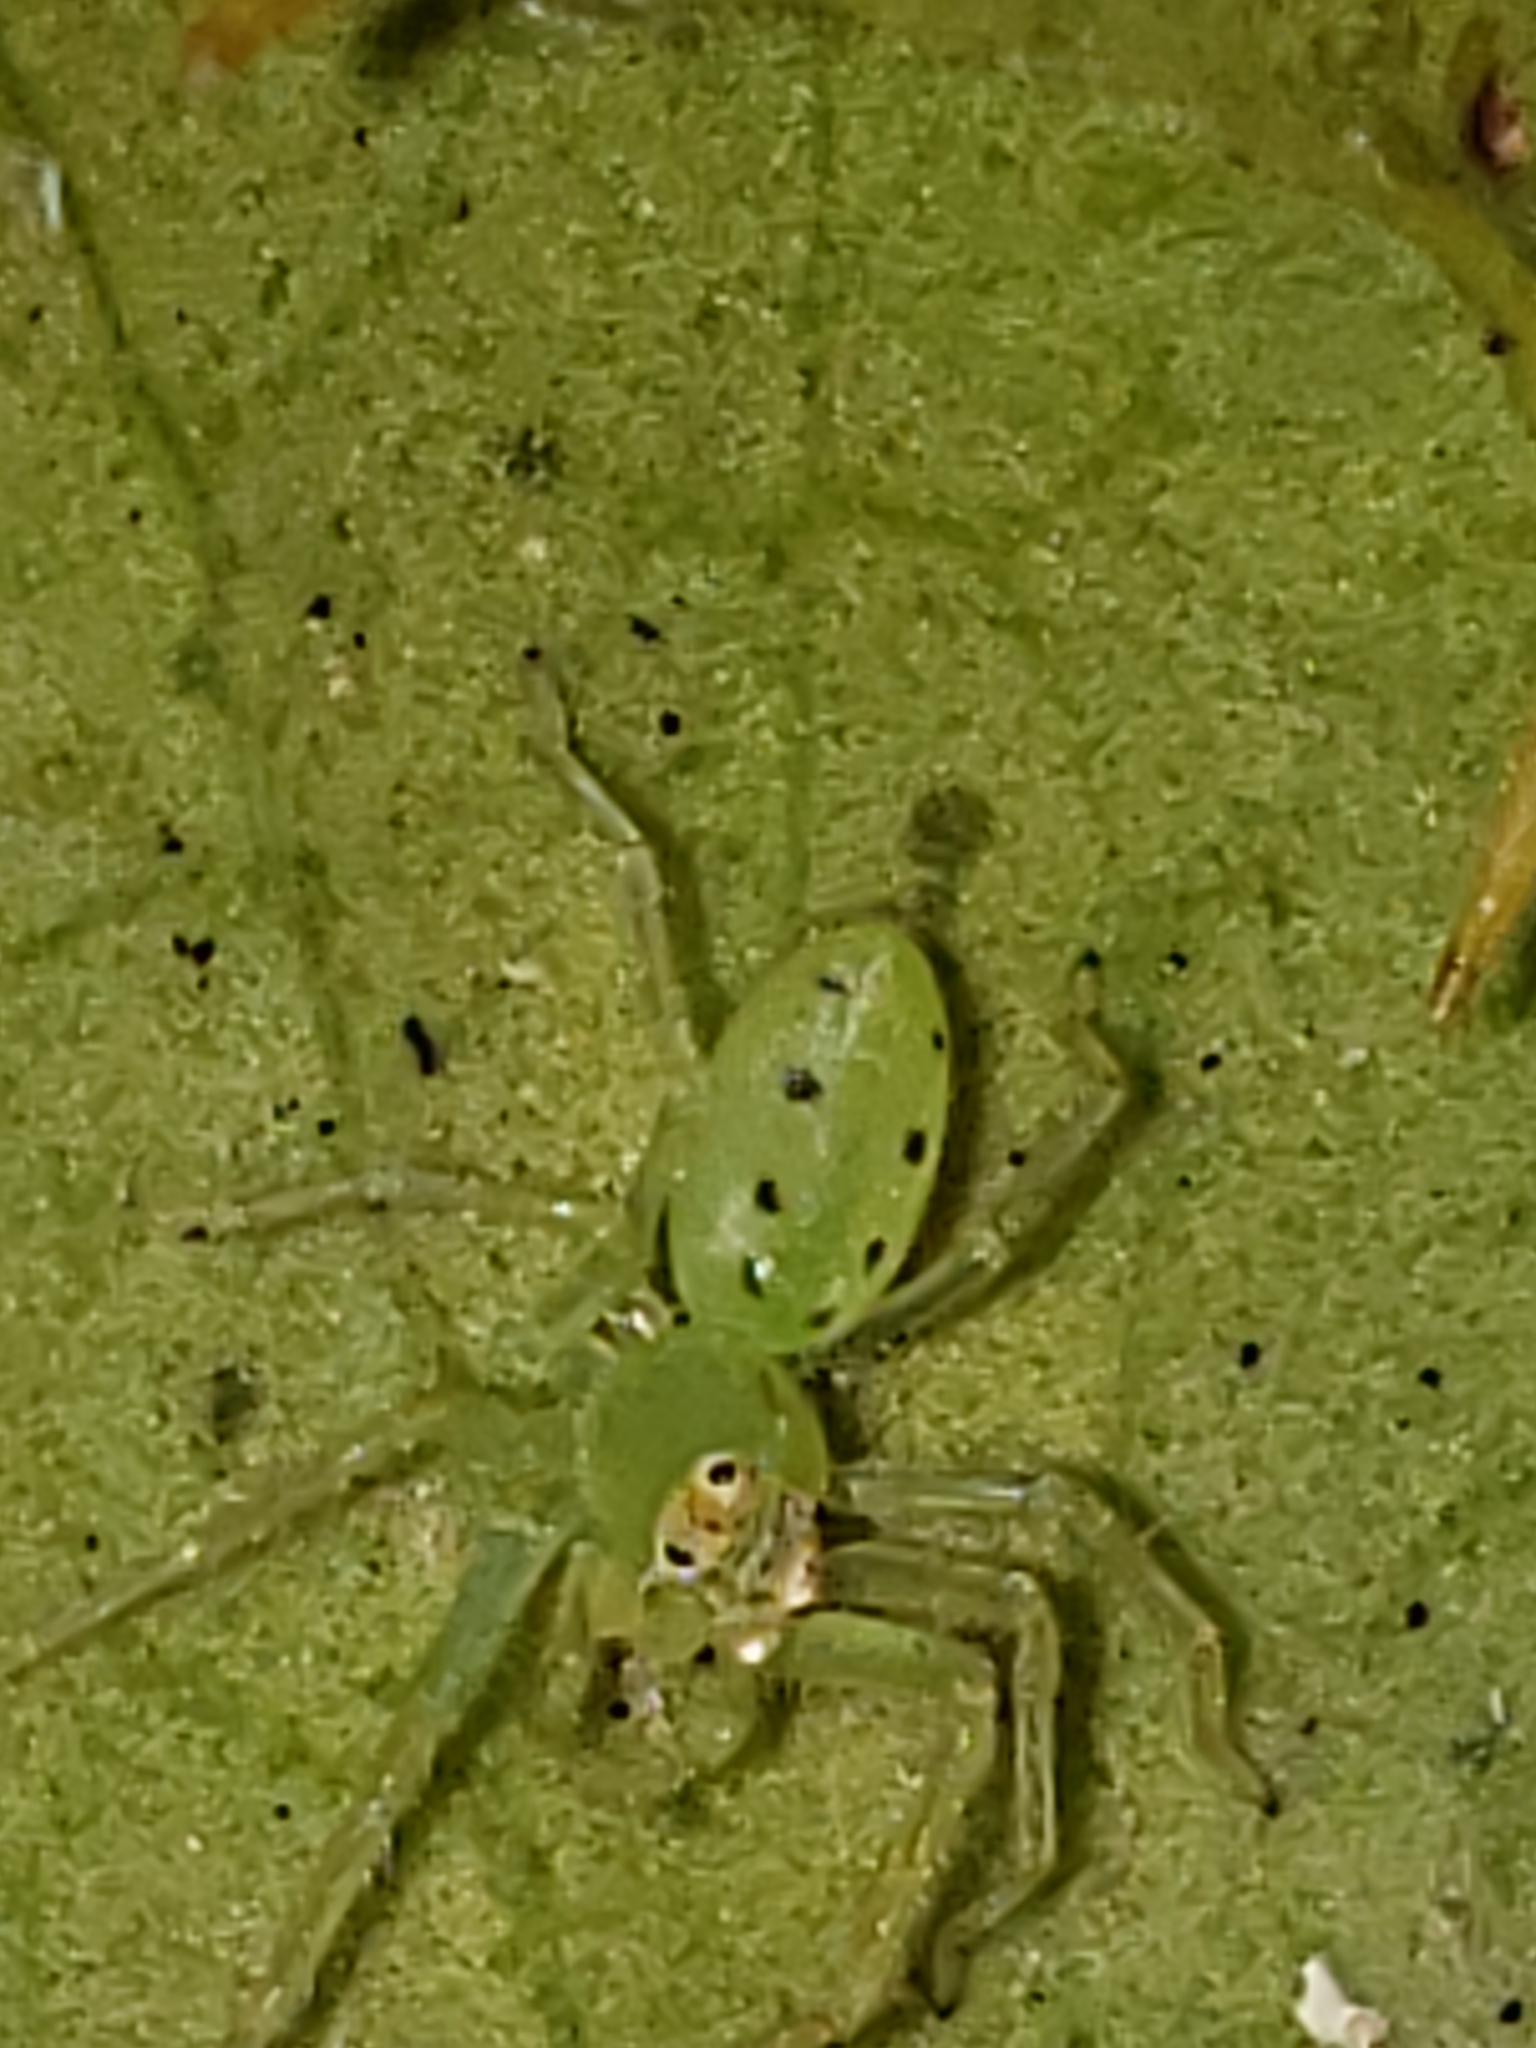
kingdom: Animalia
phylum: Arthropoda
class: Arachnida
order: Araneae
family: Salticidae
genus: Lyssomanes
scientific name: Lyssomanes viridis
